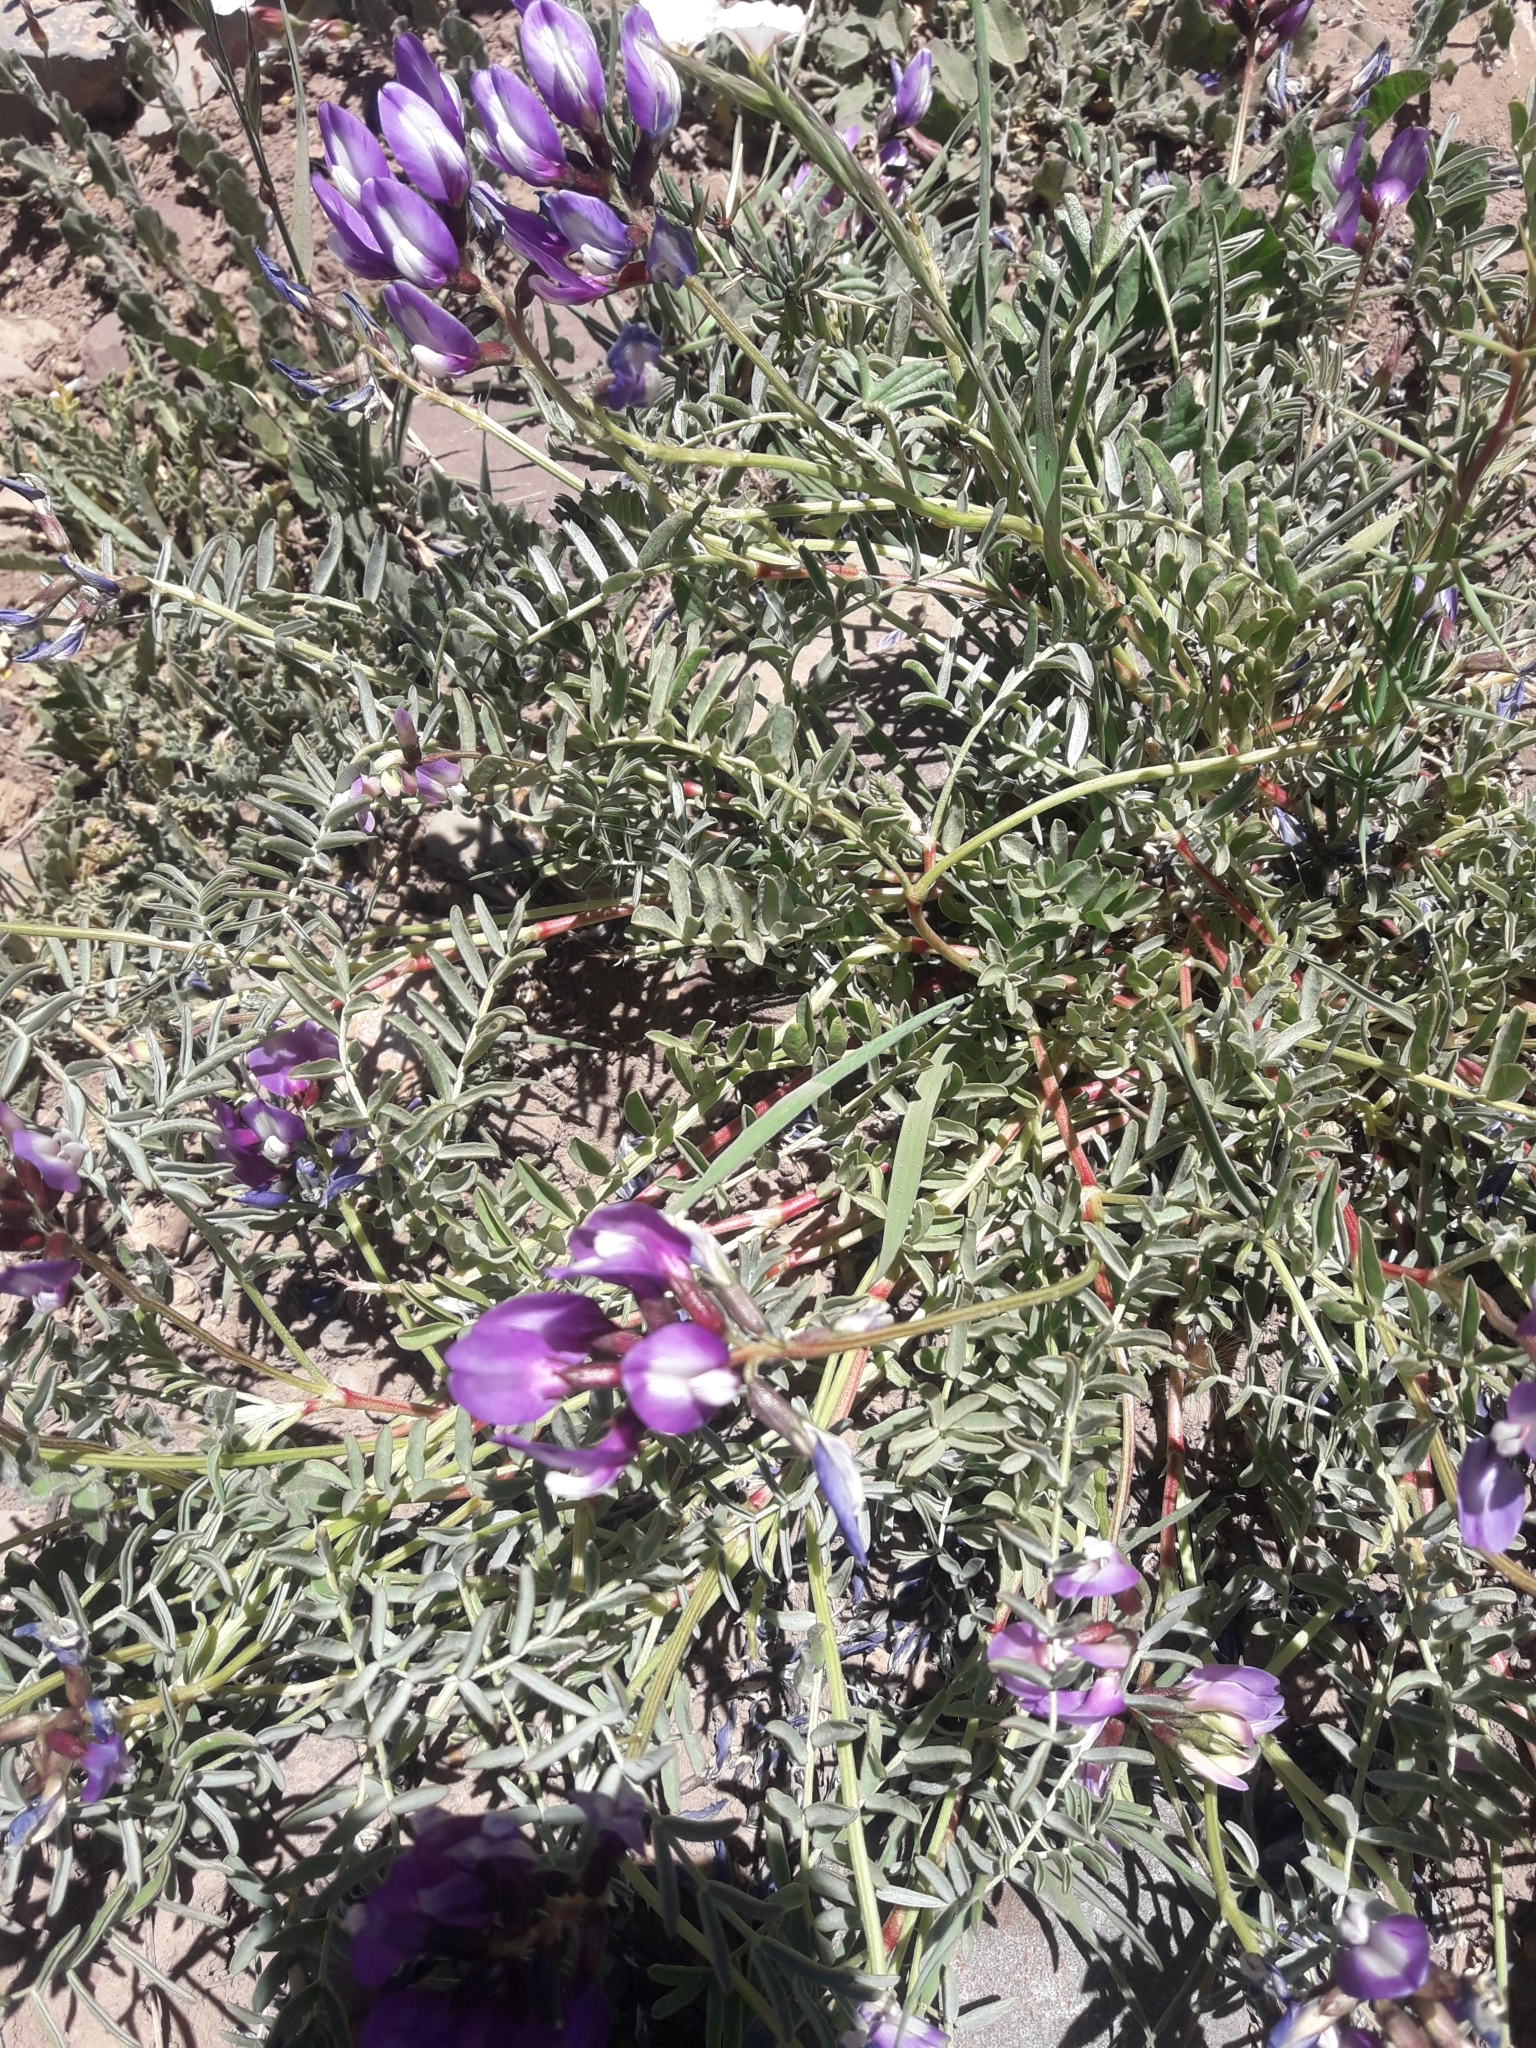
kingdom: Plantae
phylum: Tracheophyta
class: Magnoliopsida
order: Fabales
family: Fabaceae
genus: Lathyrus
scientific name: Lathyrus magellanicus
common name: Lord anson's pea
